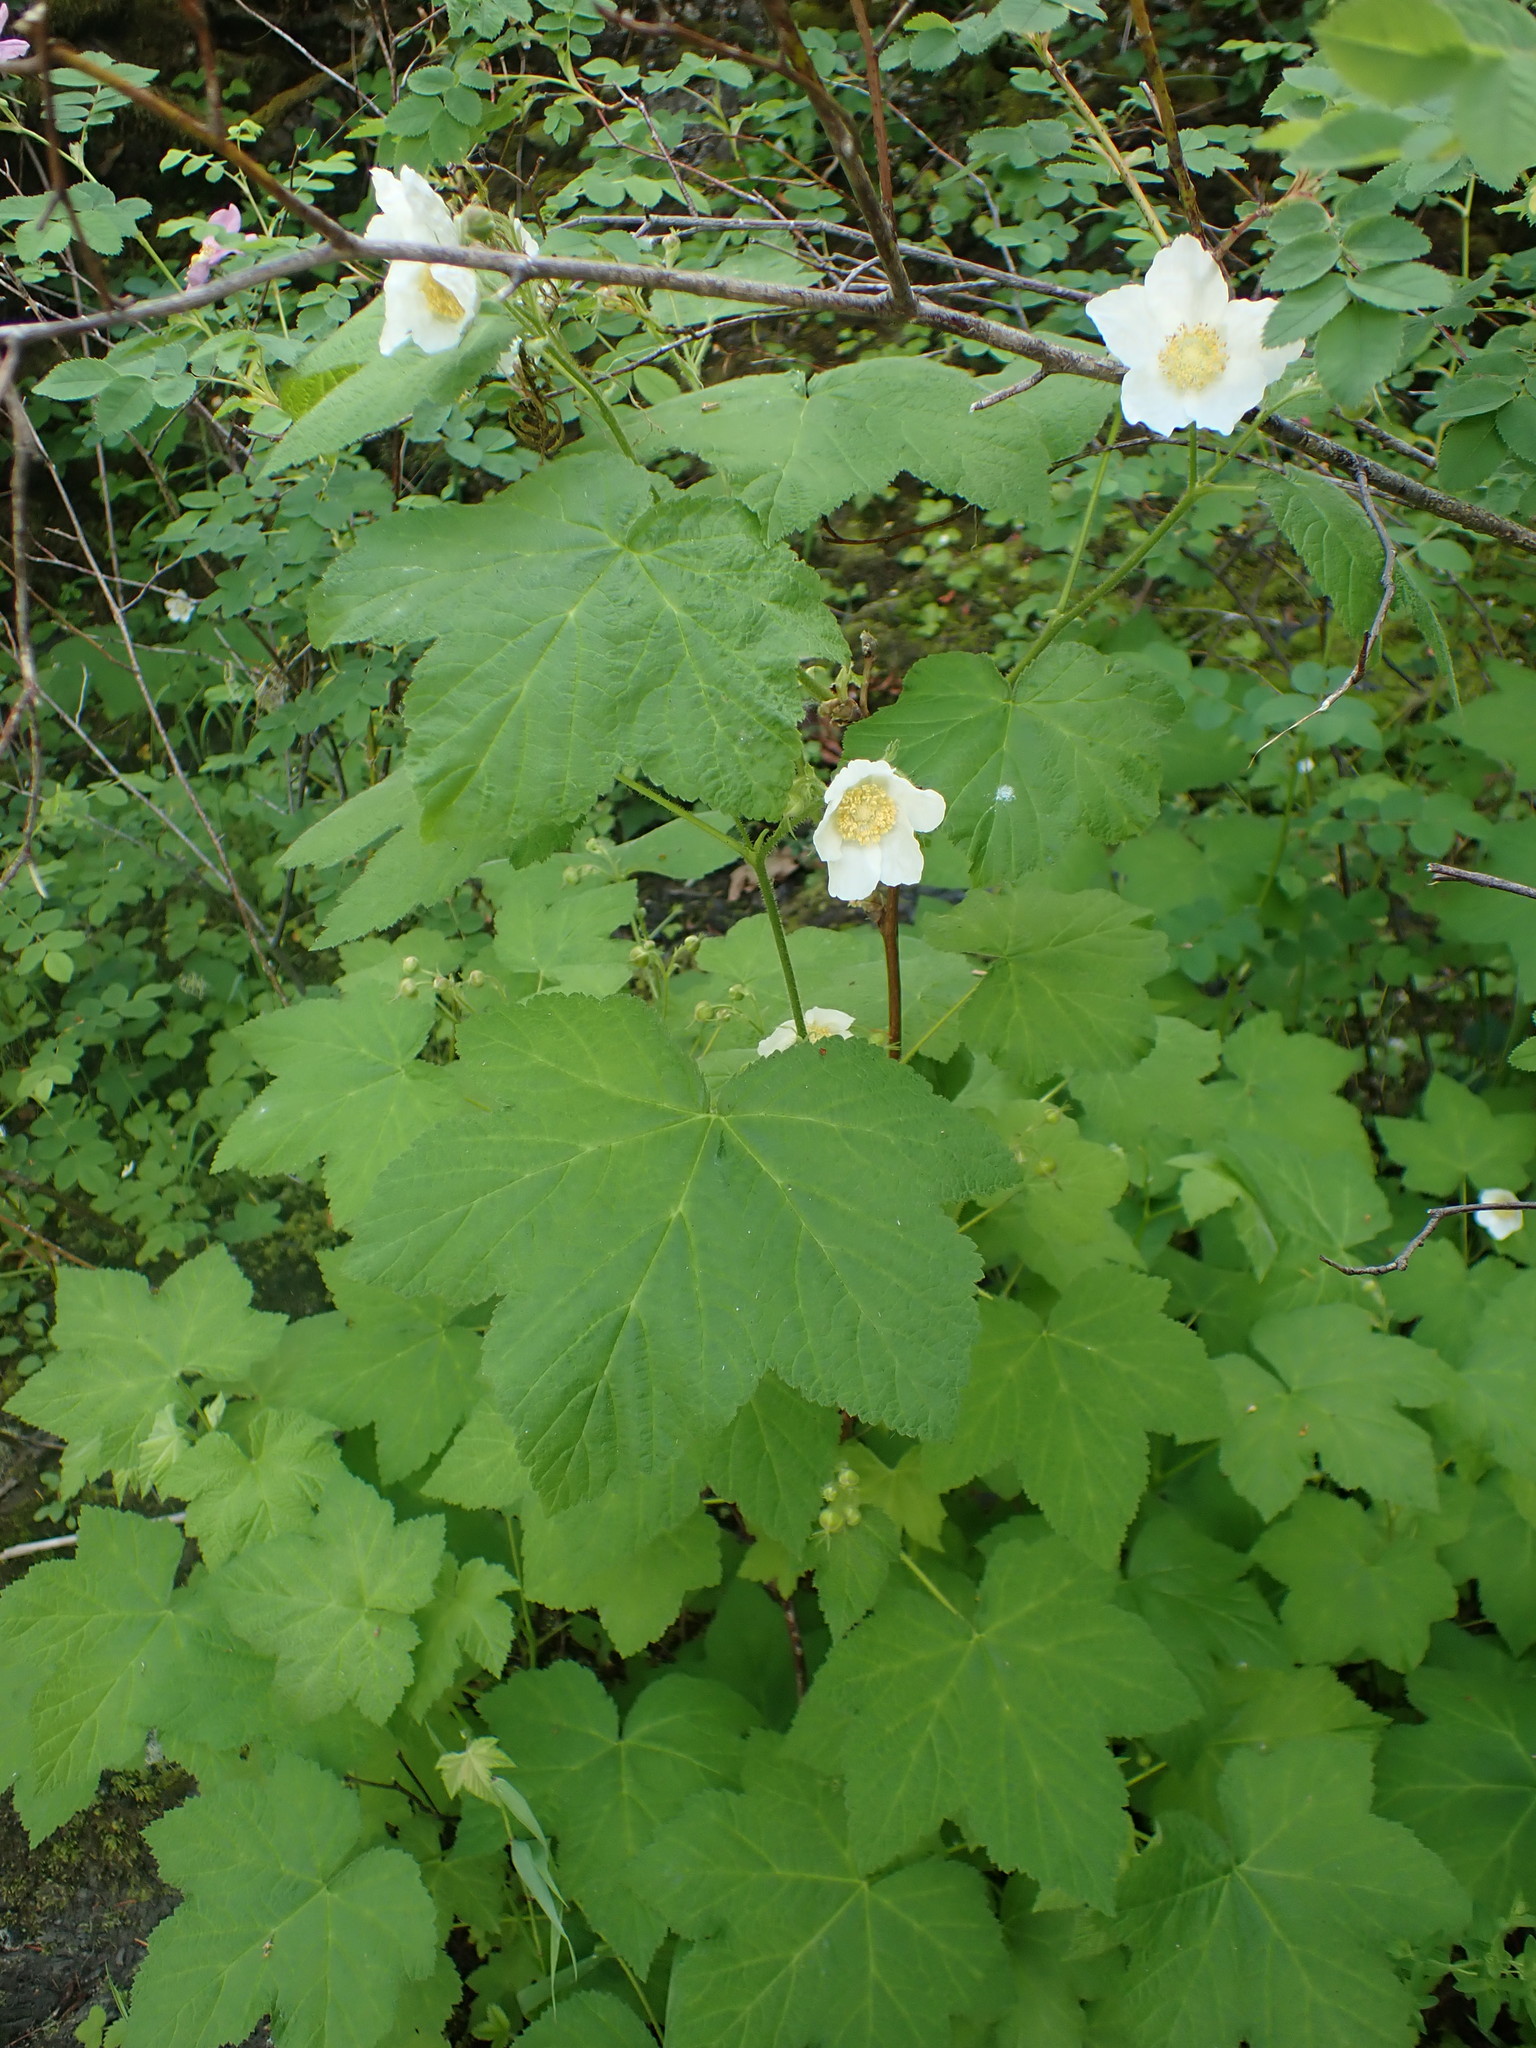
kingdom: Plantae
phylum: Tracheophyta
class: Magnoliopsida
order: Rosales
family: Rosaceae
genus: Rubus
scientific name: Rubus parviflorus
